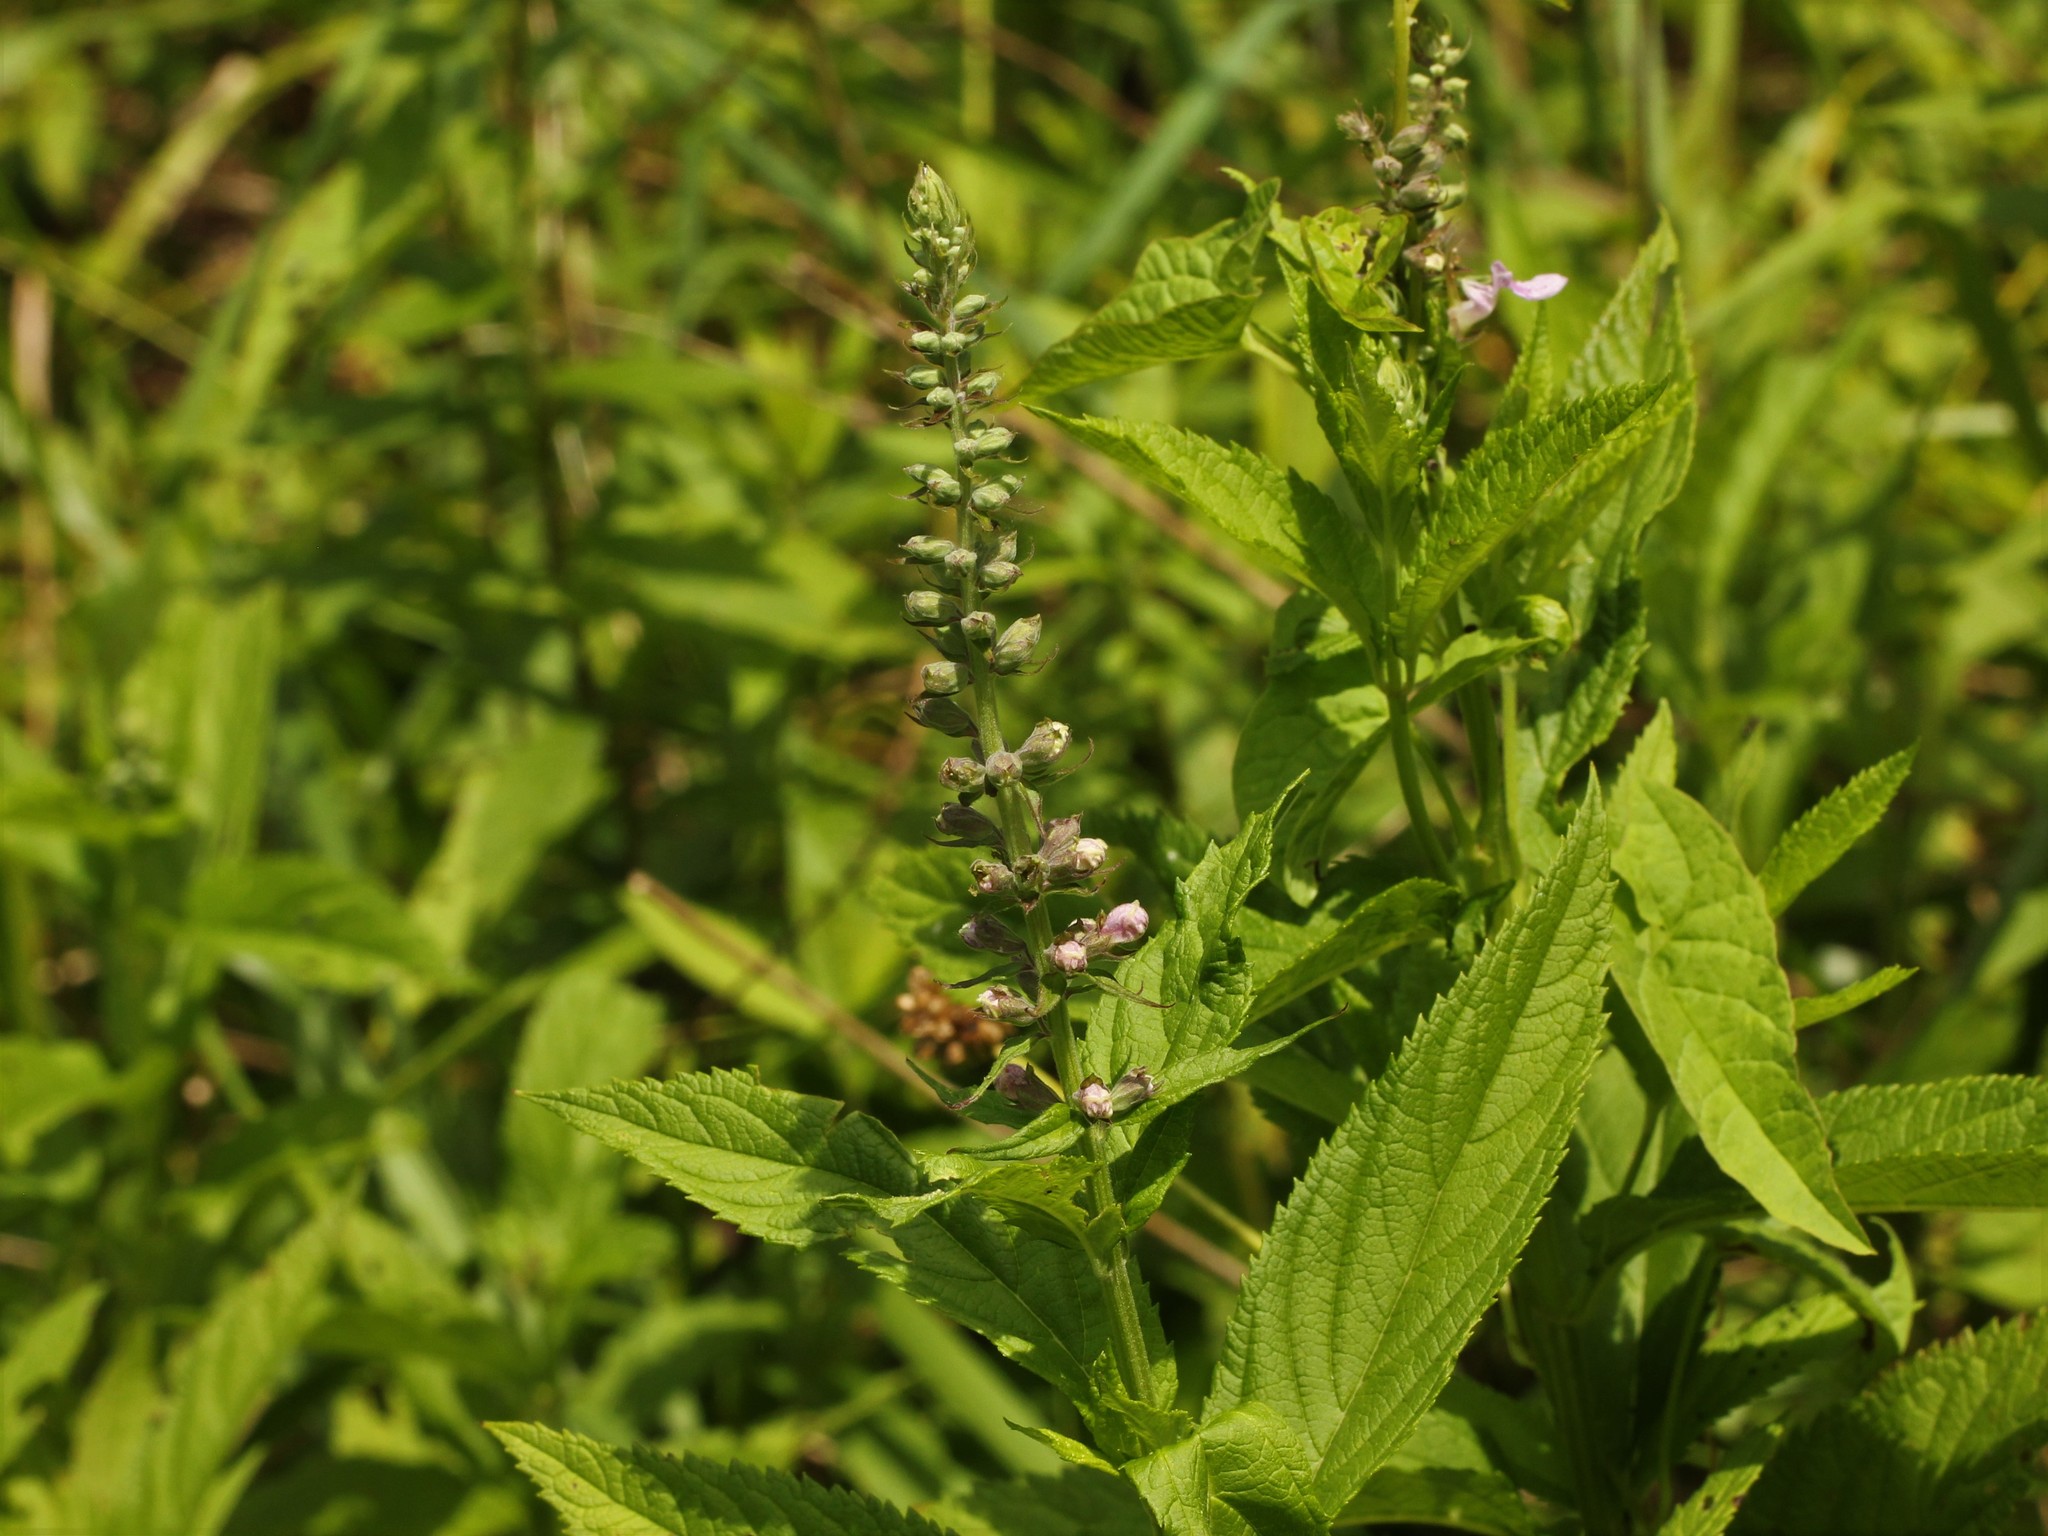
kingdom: Plantae
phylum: Tracheophyta
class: Magnoliopsida
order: Lamiales
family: Lamiaceae
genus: Teucrium
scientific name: Teucrium canadense
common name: American germander
